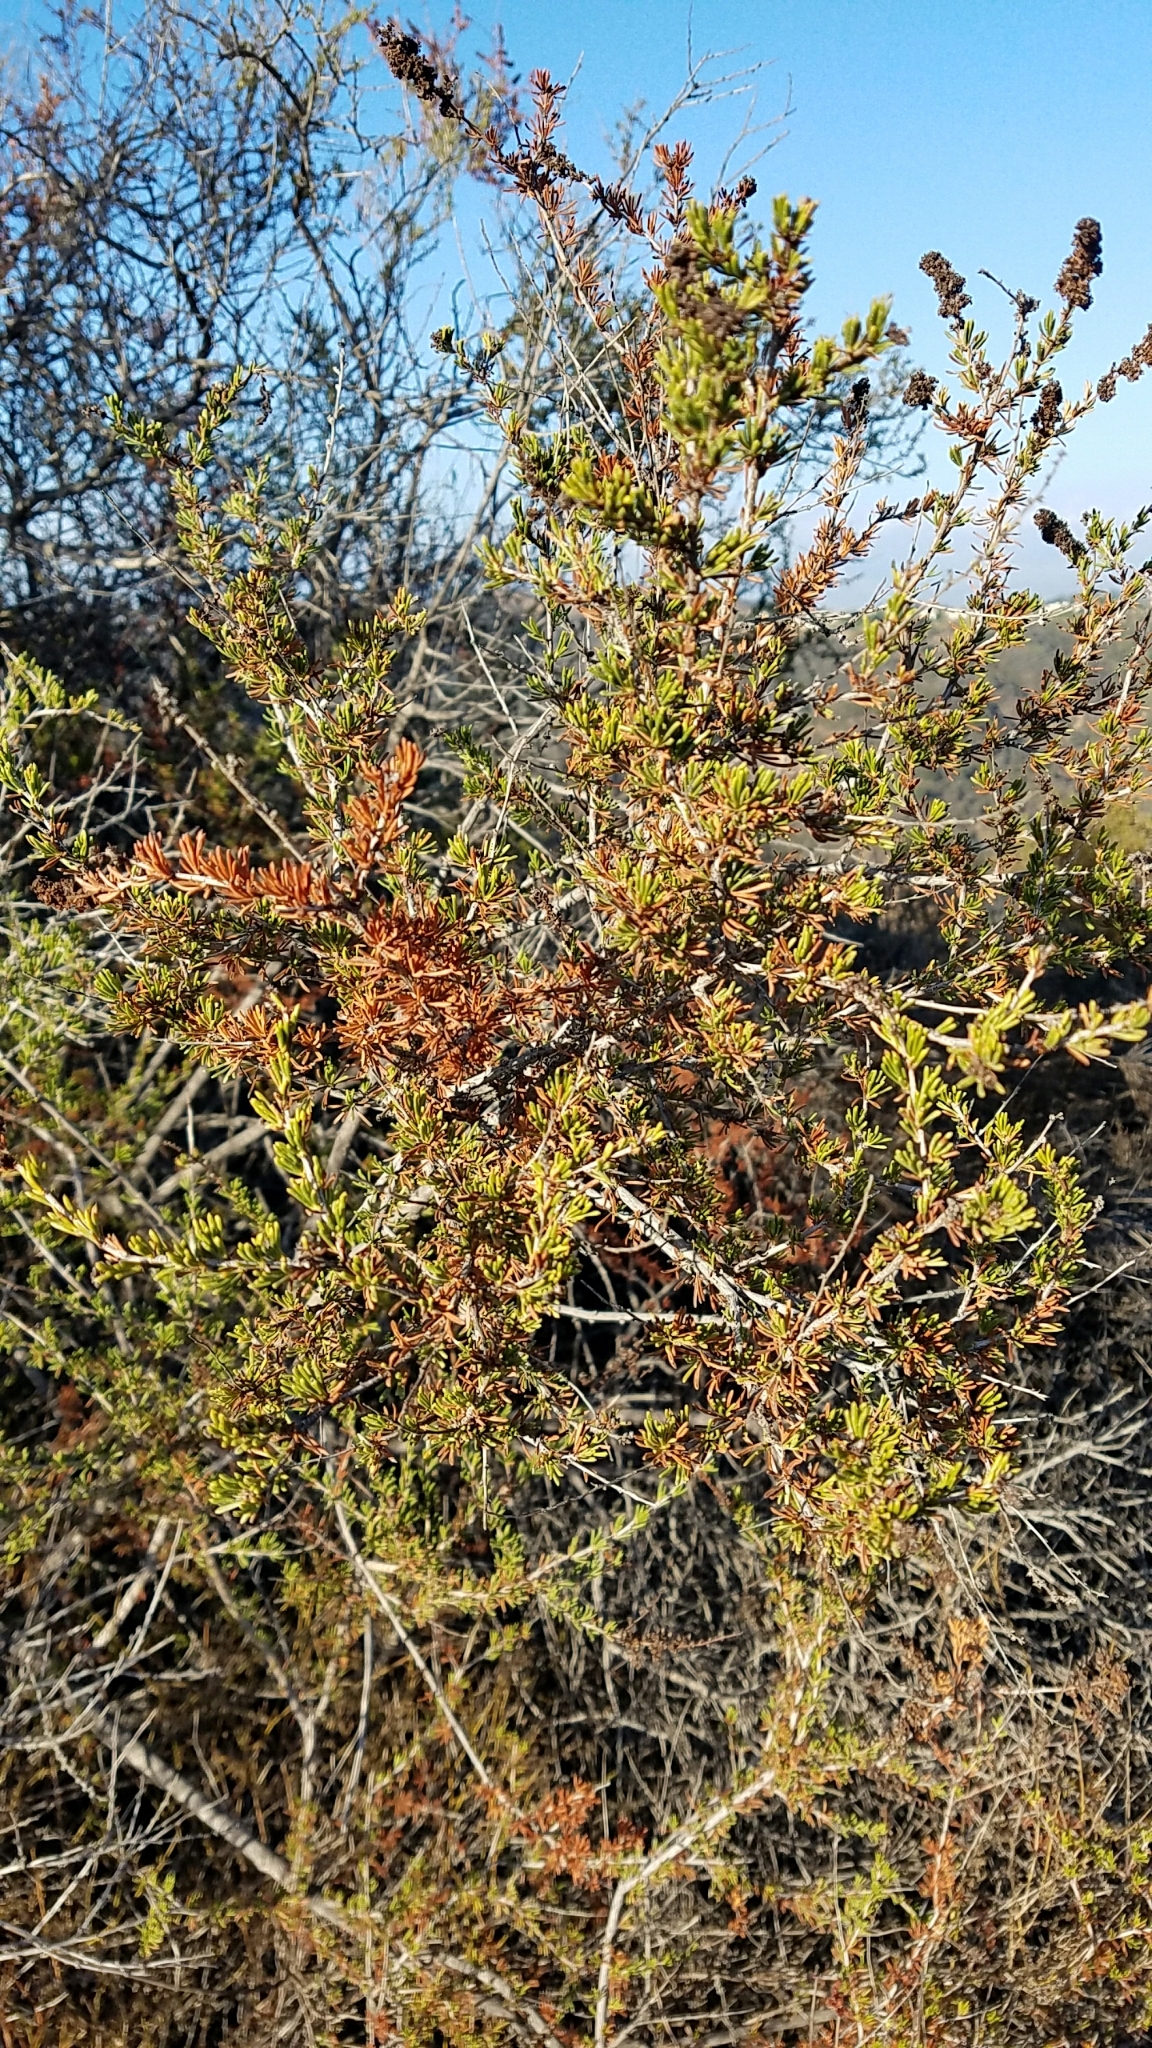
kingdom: Plantae
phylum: Tracheophyta
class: Magnoliopsida
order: Rosales
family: Rosaceae
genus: Adenostoma
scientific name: Adenostoma fasciculatum
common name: Chamise
